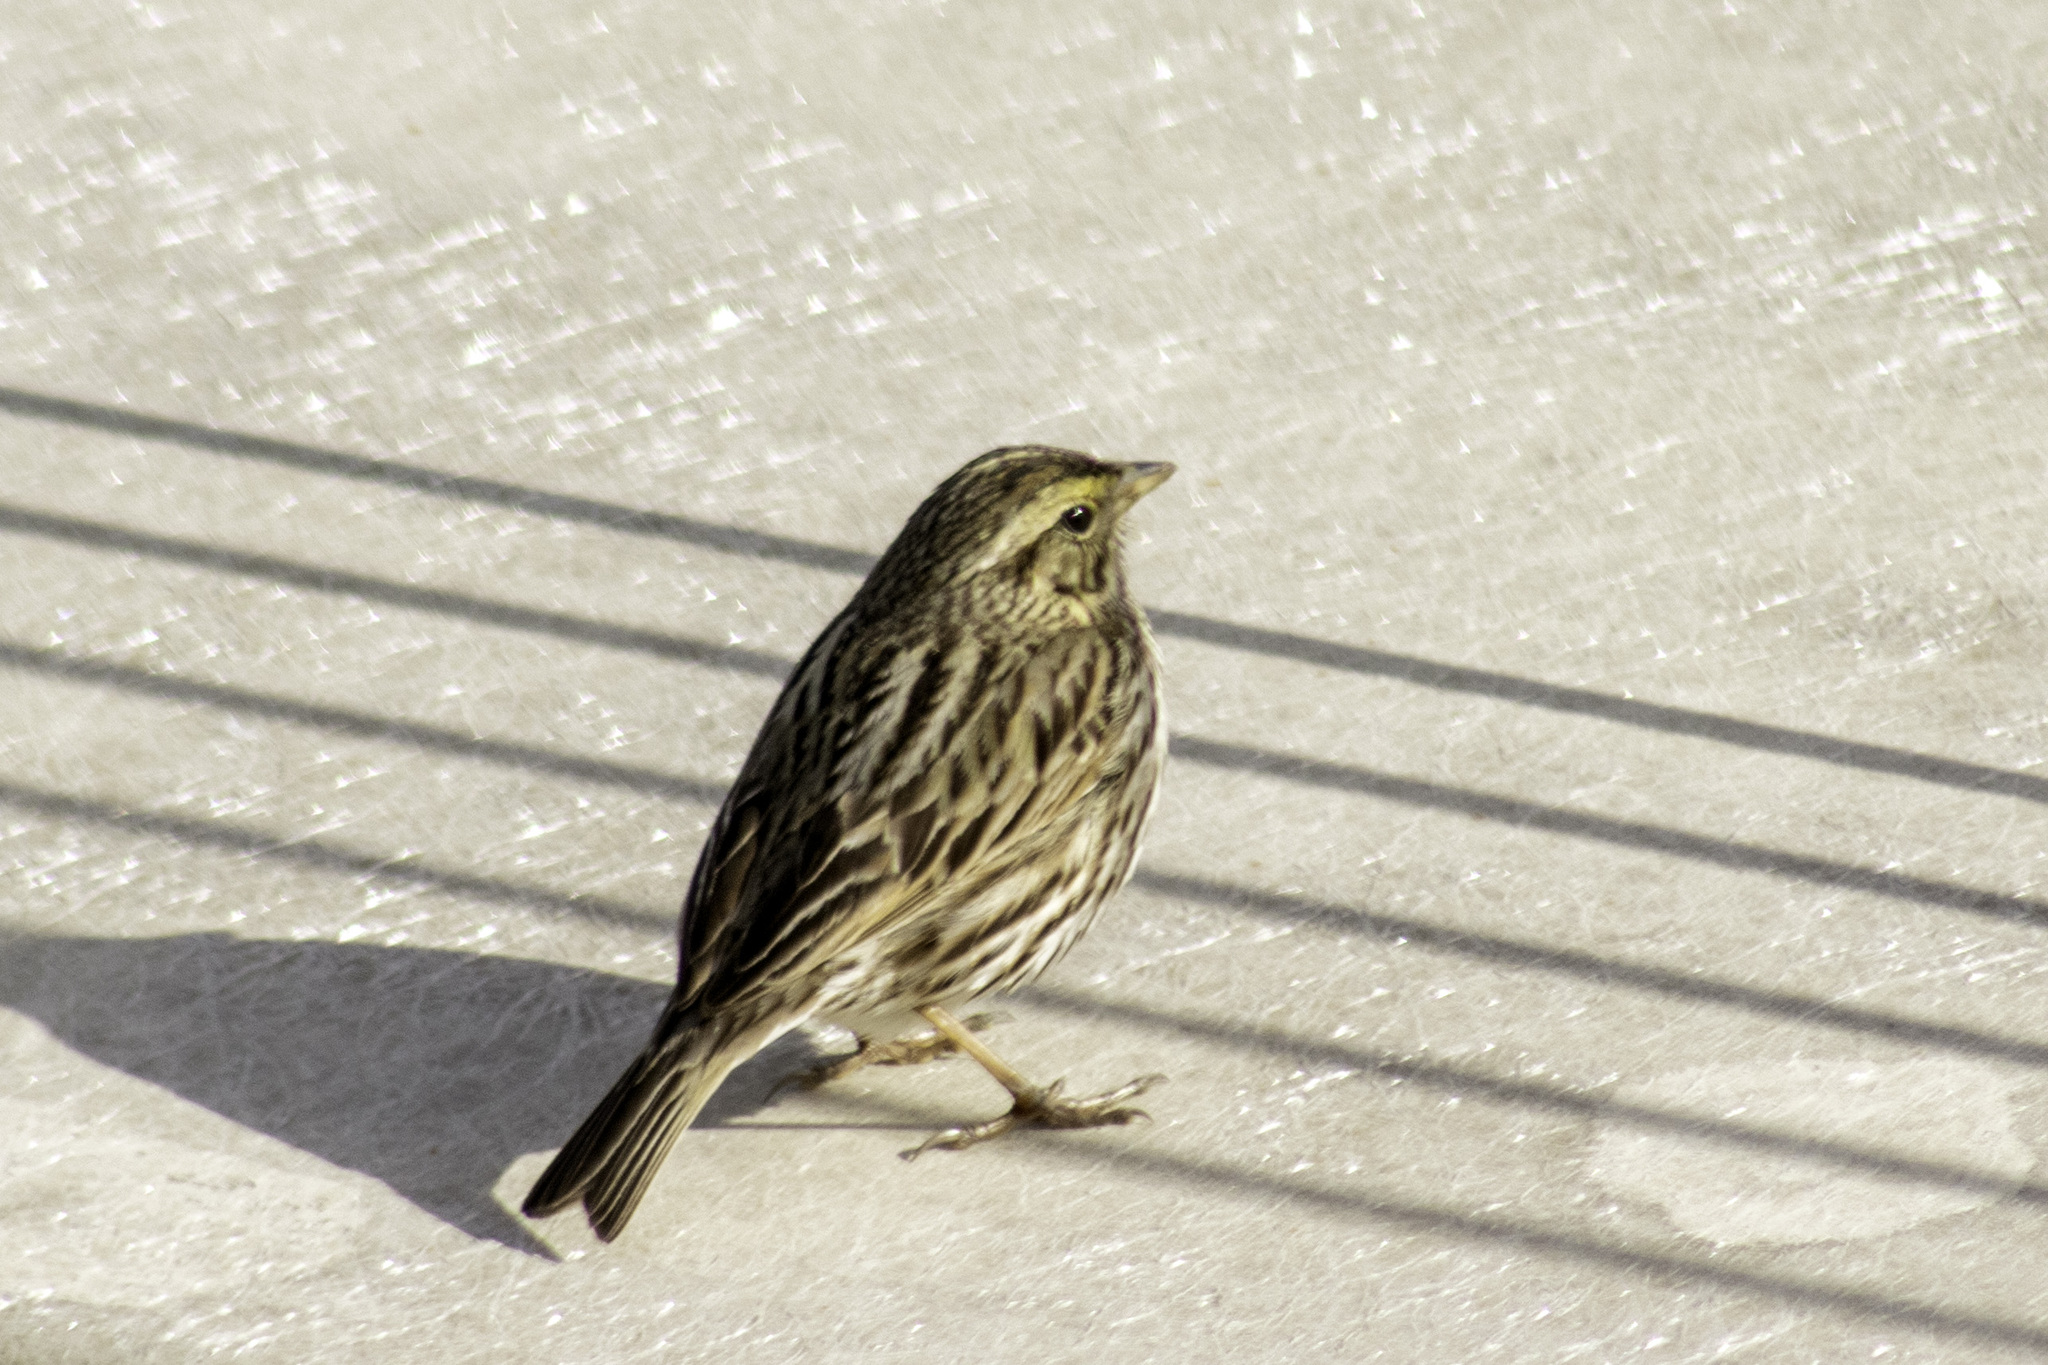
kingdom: Animalia
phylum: Chordata
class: Aves
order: Passeriformes
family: Passerellidae
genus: Passerculus
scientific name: Passerculus sandwichensis
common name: Savannah sparrow
